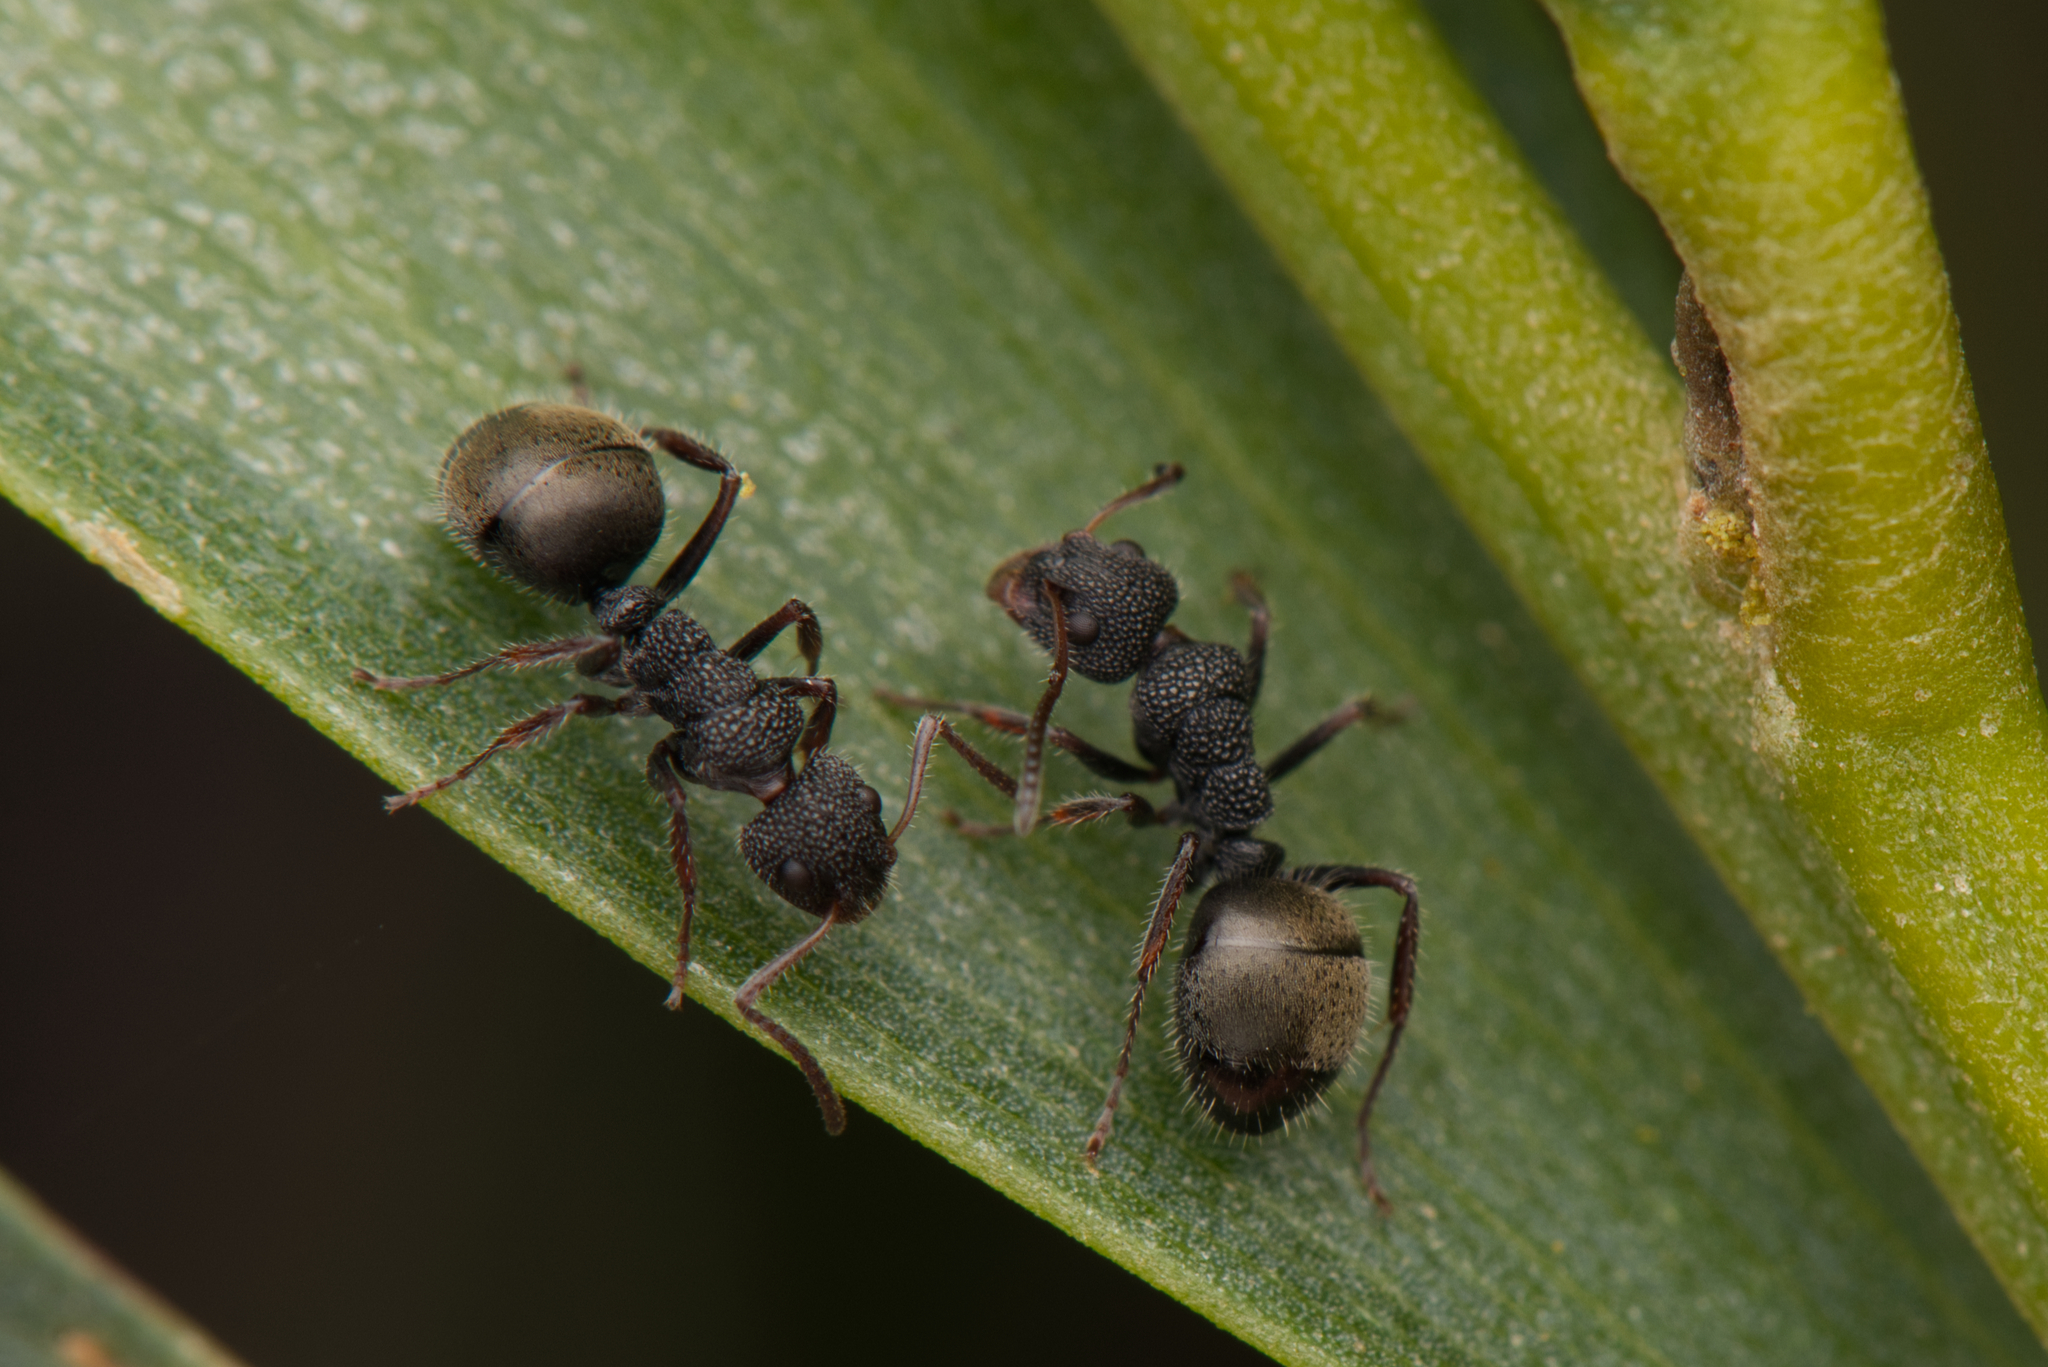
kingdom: Animalia
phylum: Arthropoda
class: Insecta
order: Hymenoptera
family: Formicidae
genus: Dolichoderus
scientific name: Dolichoderus scrobiculatus
